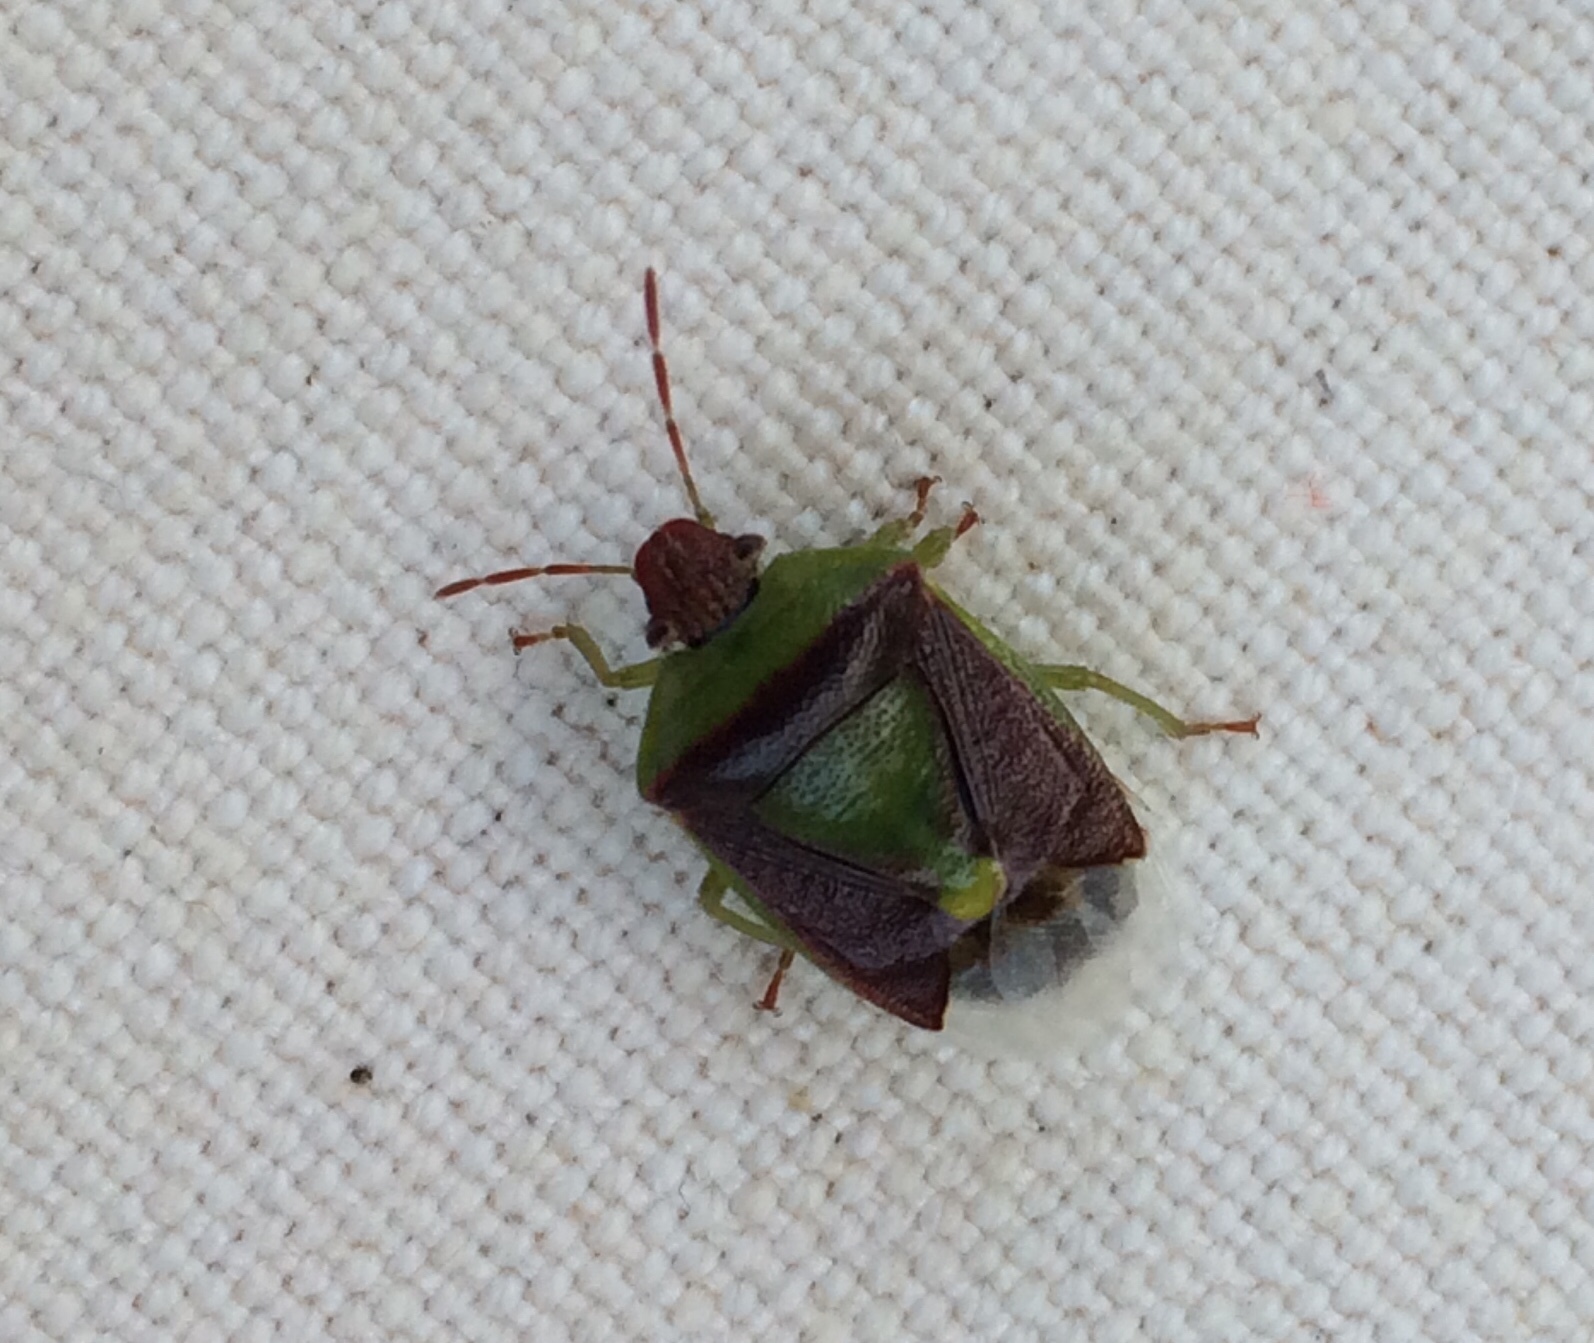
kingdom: Animalia
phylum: Arthropoda
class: Insecta
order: Hemiptera
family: Pentatomidae
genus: Banasa
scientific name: Banasa dimidiata
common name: Green burgundy stink bug
